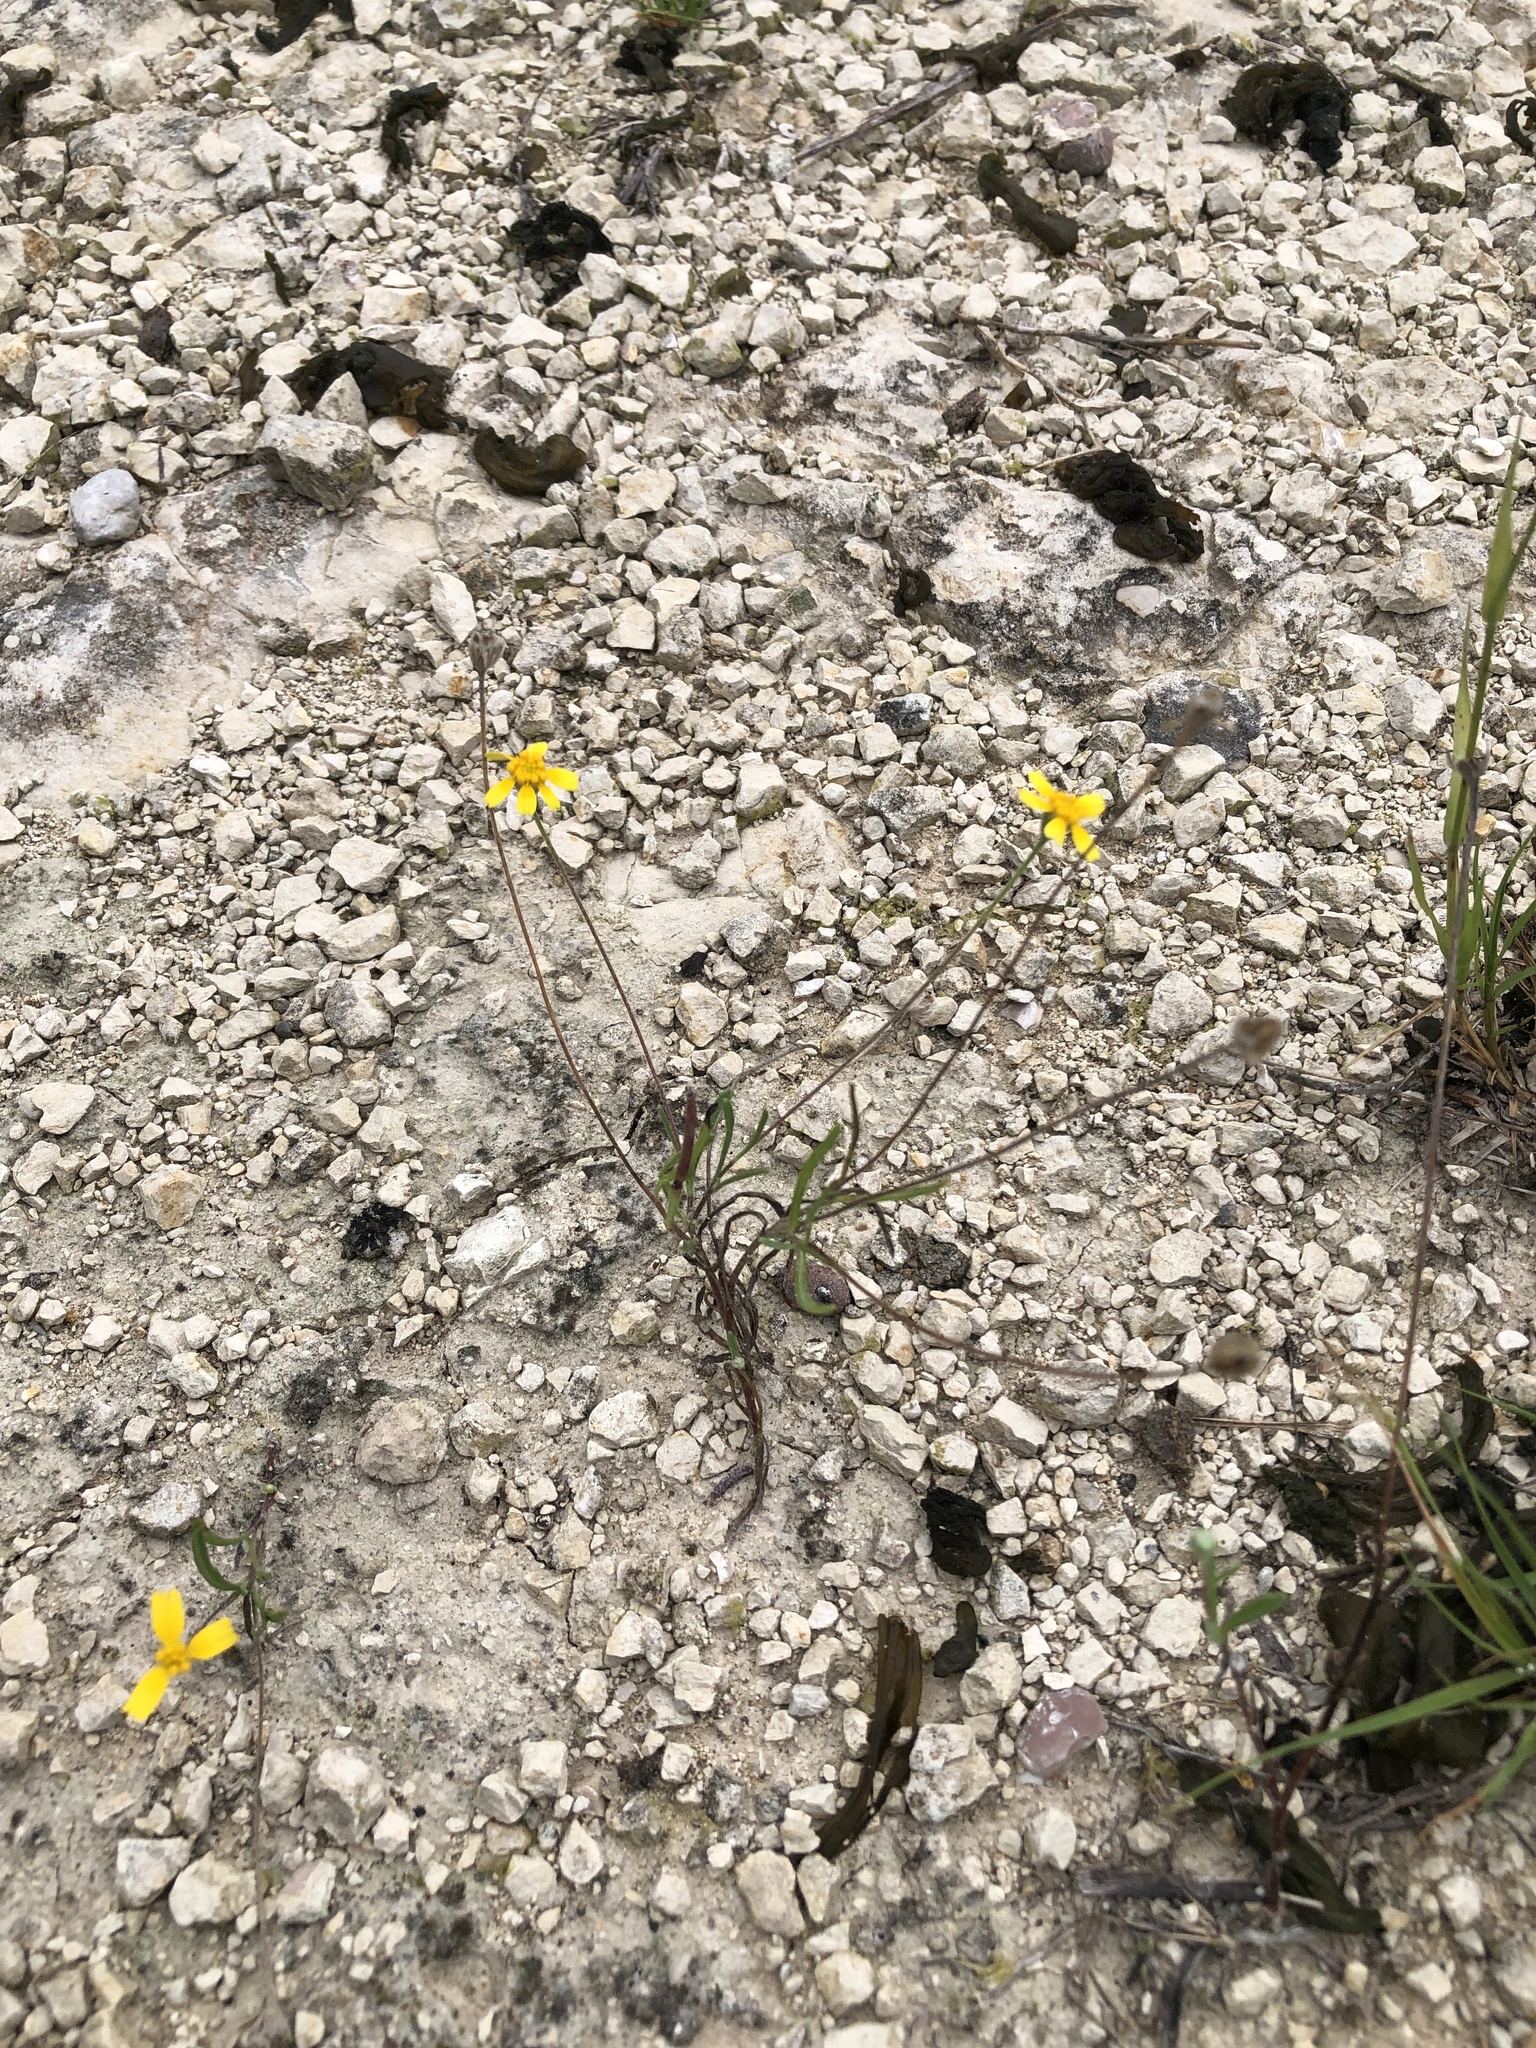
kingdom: Plantae
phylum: Tracheophyta
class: Magnoliopsida
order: Asterales
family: Asteraceae
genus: Tetraneuris
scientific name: Tetraneuris linearifolia
